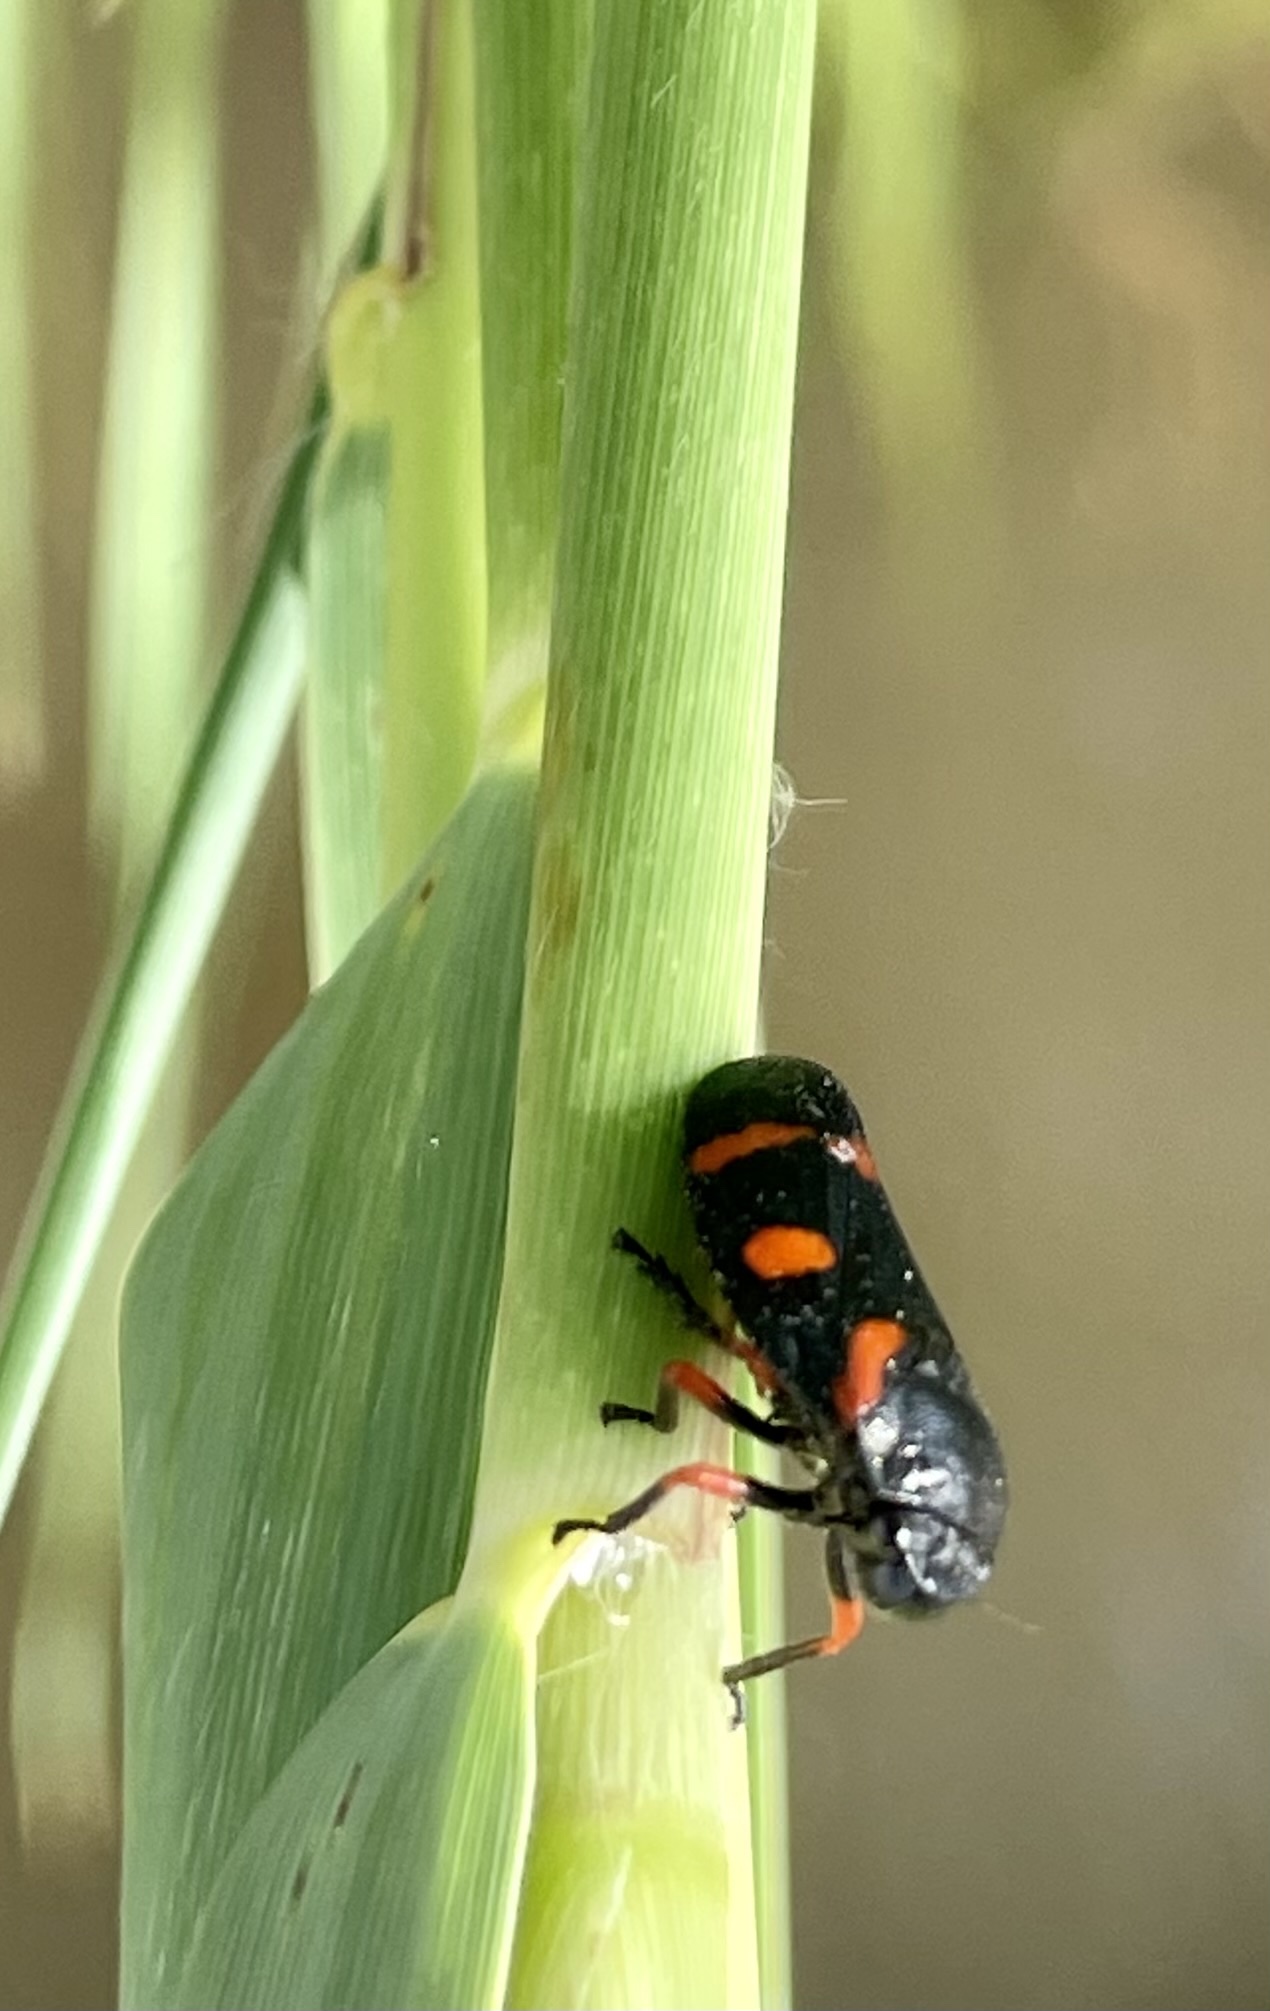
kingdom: Animalia
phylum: Arthropoda
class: Insecta
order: Hemiptera
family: Cercopidae
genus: Cercopis
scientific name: Cercopis intermedia
